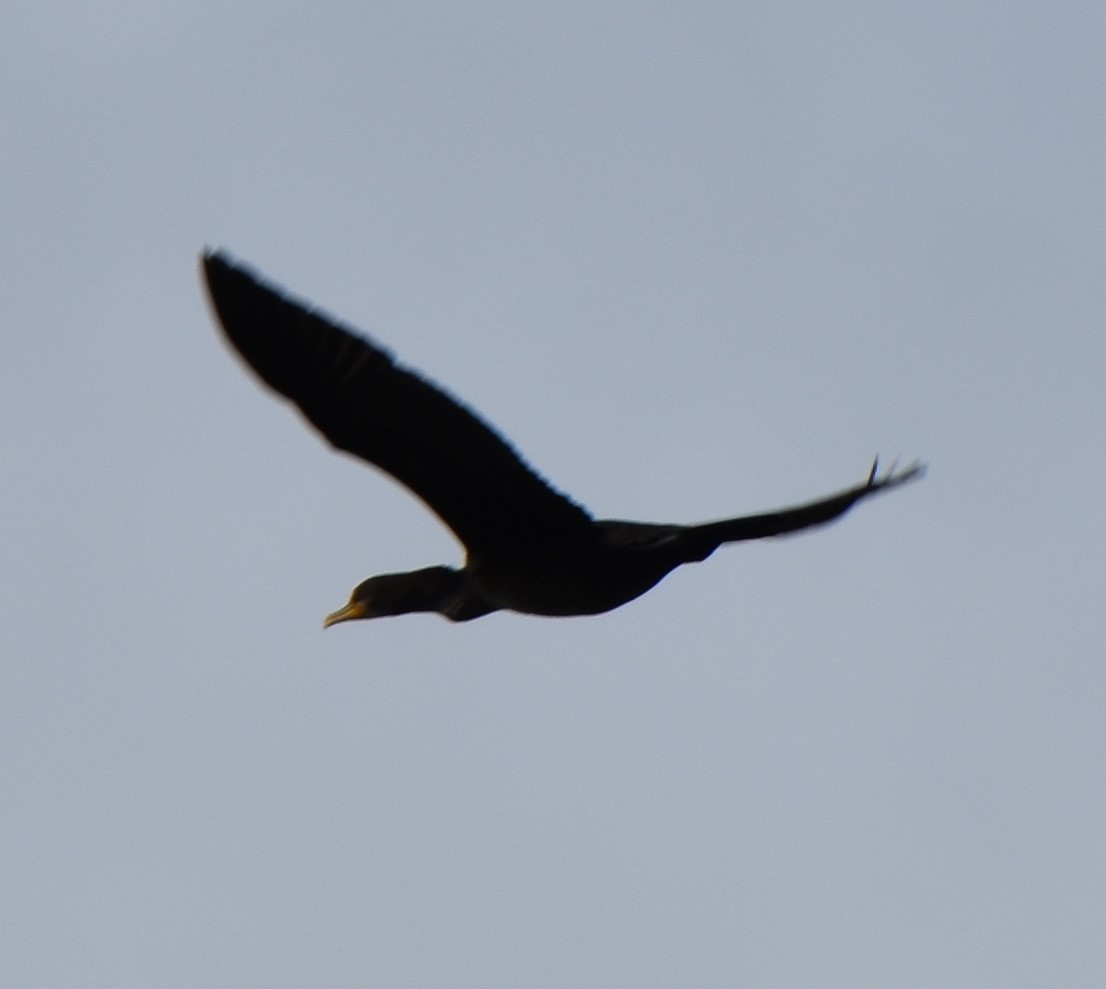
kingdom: Animalia
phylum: Chordata
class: Aves
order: Suliformes
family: Phalacrocoracidae
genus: Phalacrocorax
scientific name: Phalacrocorax auritus
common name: Double-crested cormorant
